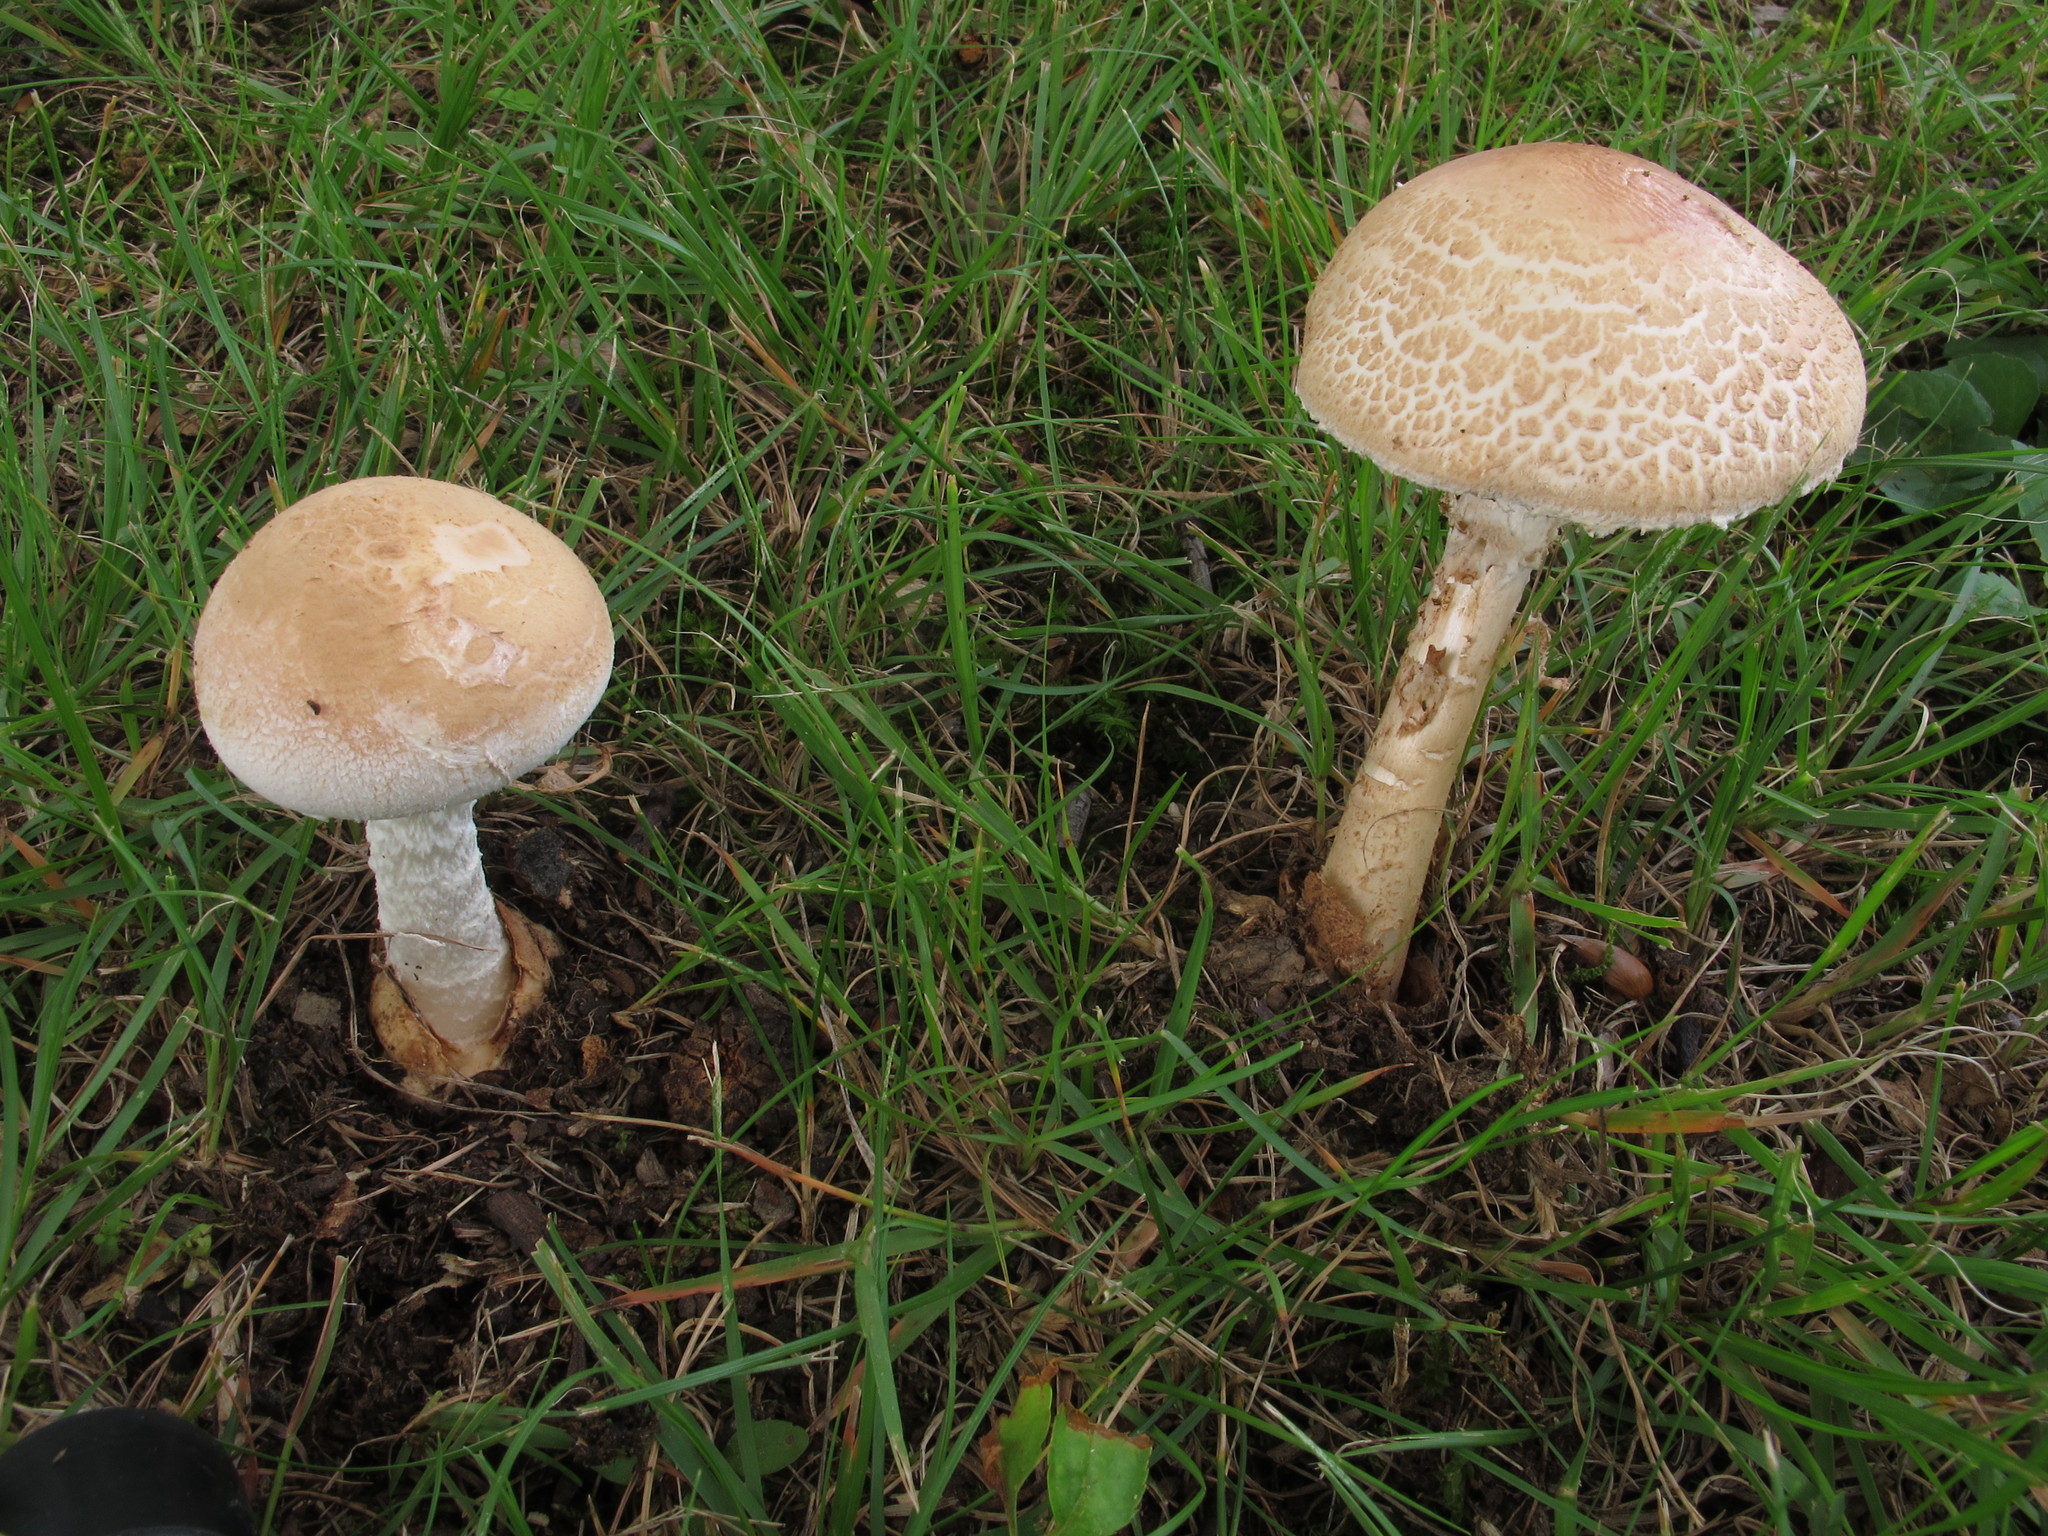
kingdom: Fungi
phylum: Basidiomycota
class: Agaricomycetes
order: Agaricales
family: Amanitaceae
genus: Amanita
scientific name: Amanita volvata
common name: American amidella
